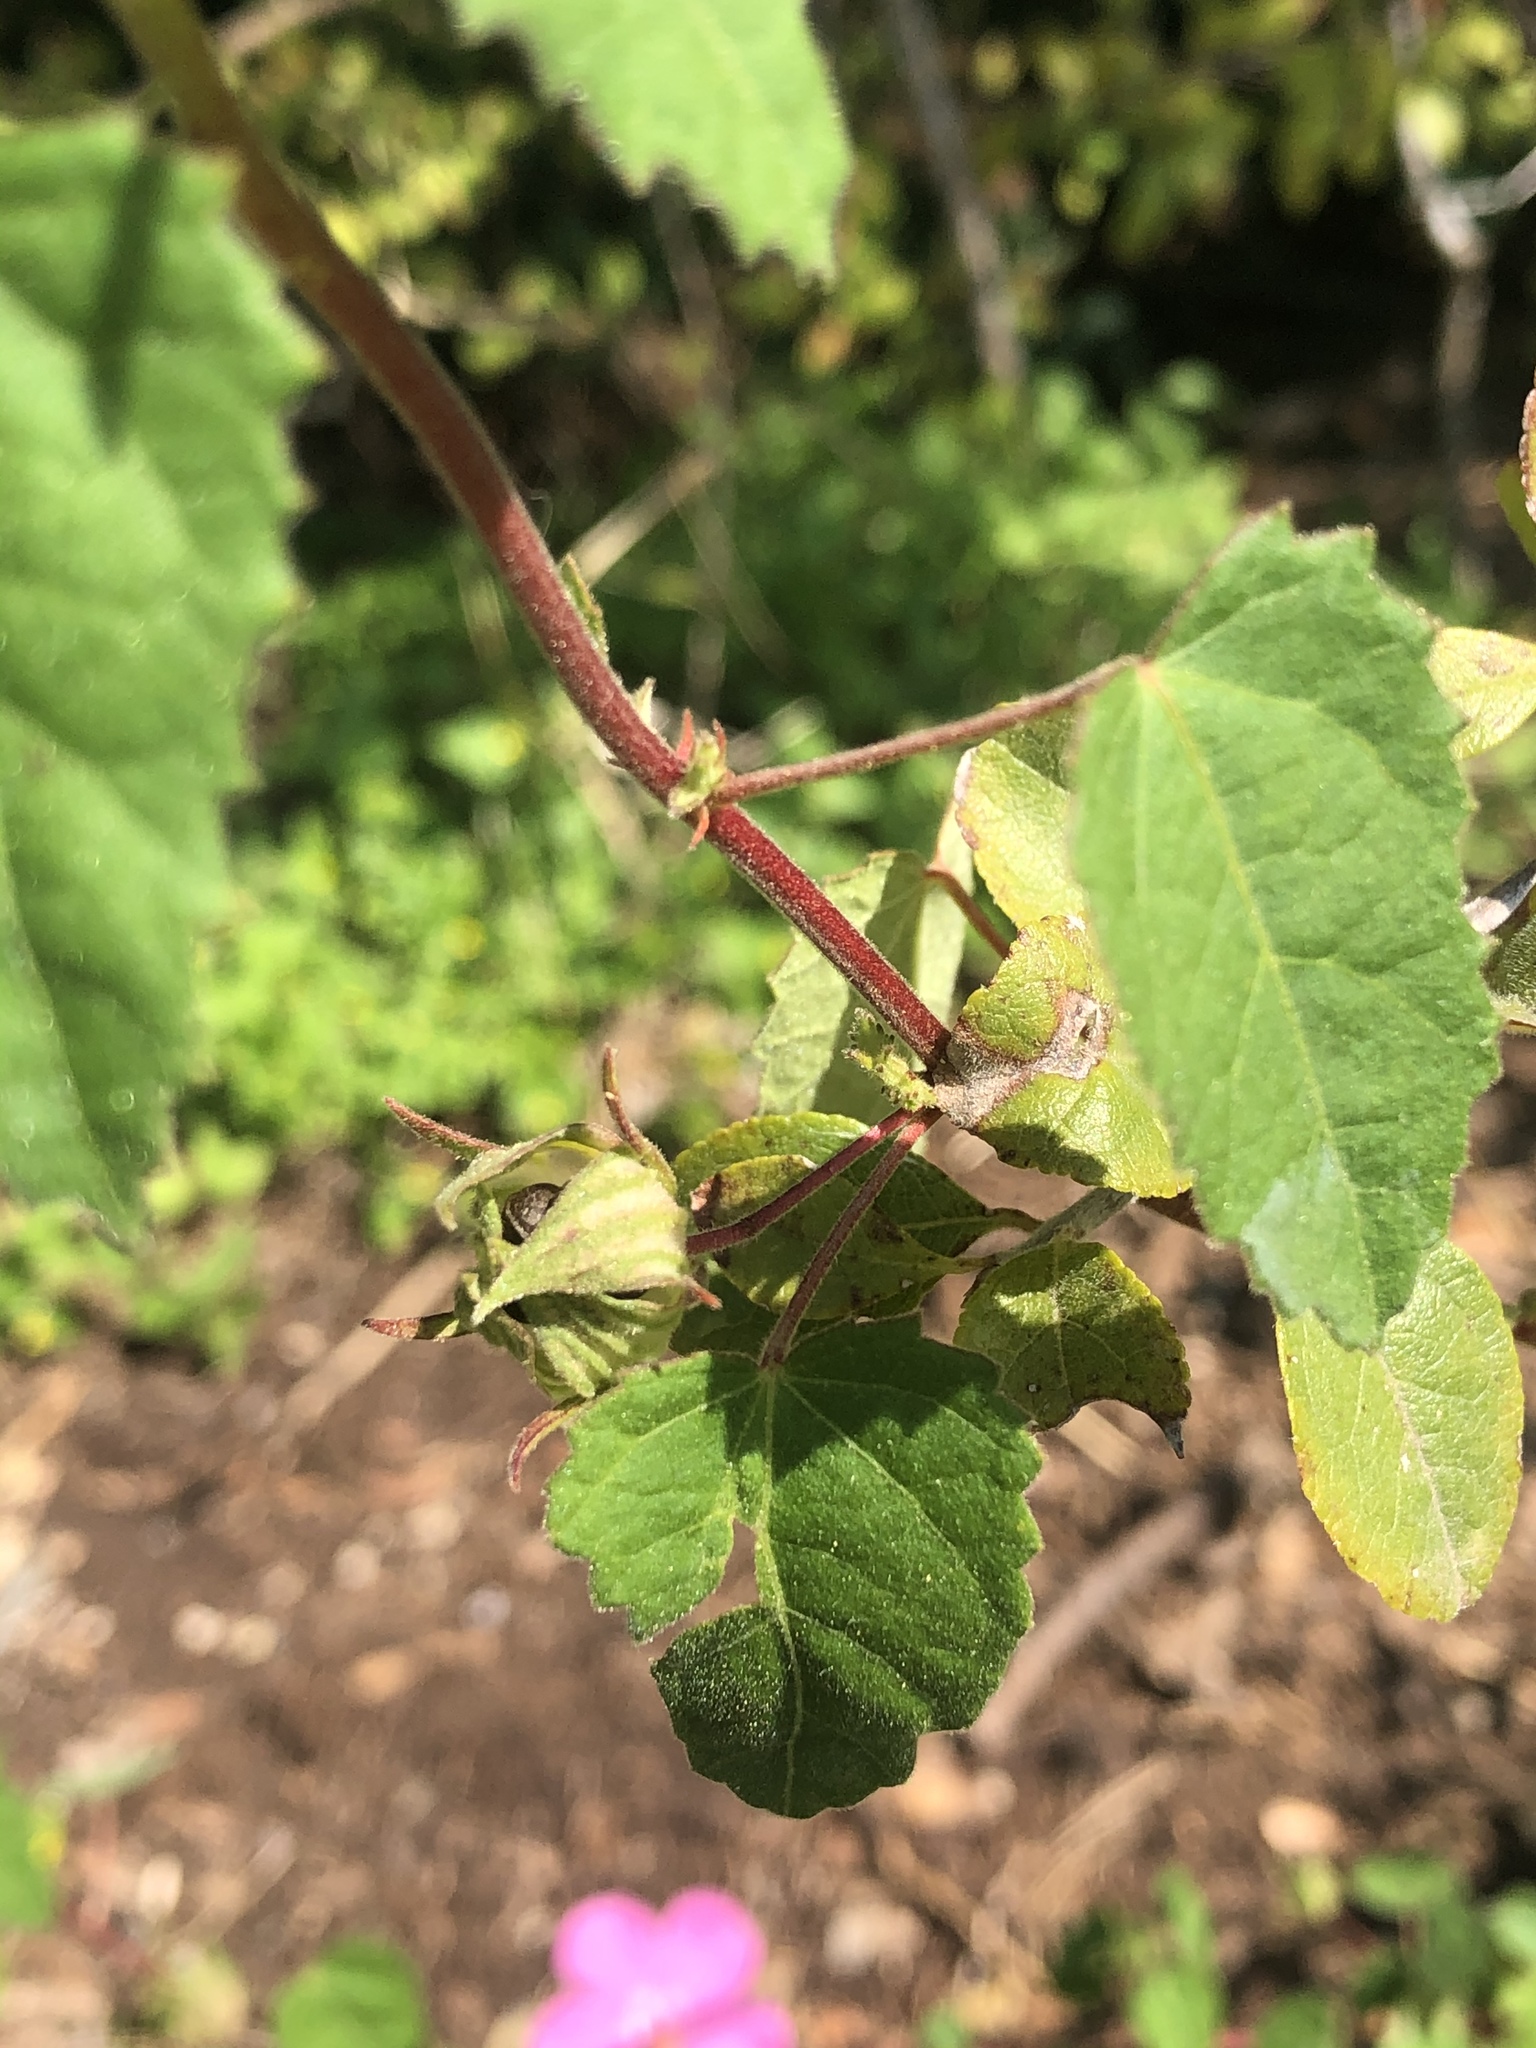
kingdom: Plantae
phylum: Tracheophyta
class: Magnoliopsida
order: Malvales
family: Malvaceae
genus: Pavonia
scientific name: Pavonia lasiopetala
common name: Texas swamp-mallow
